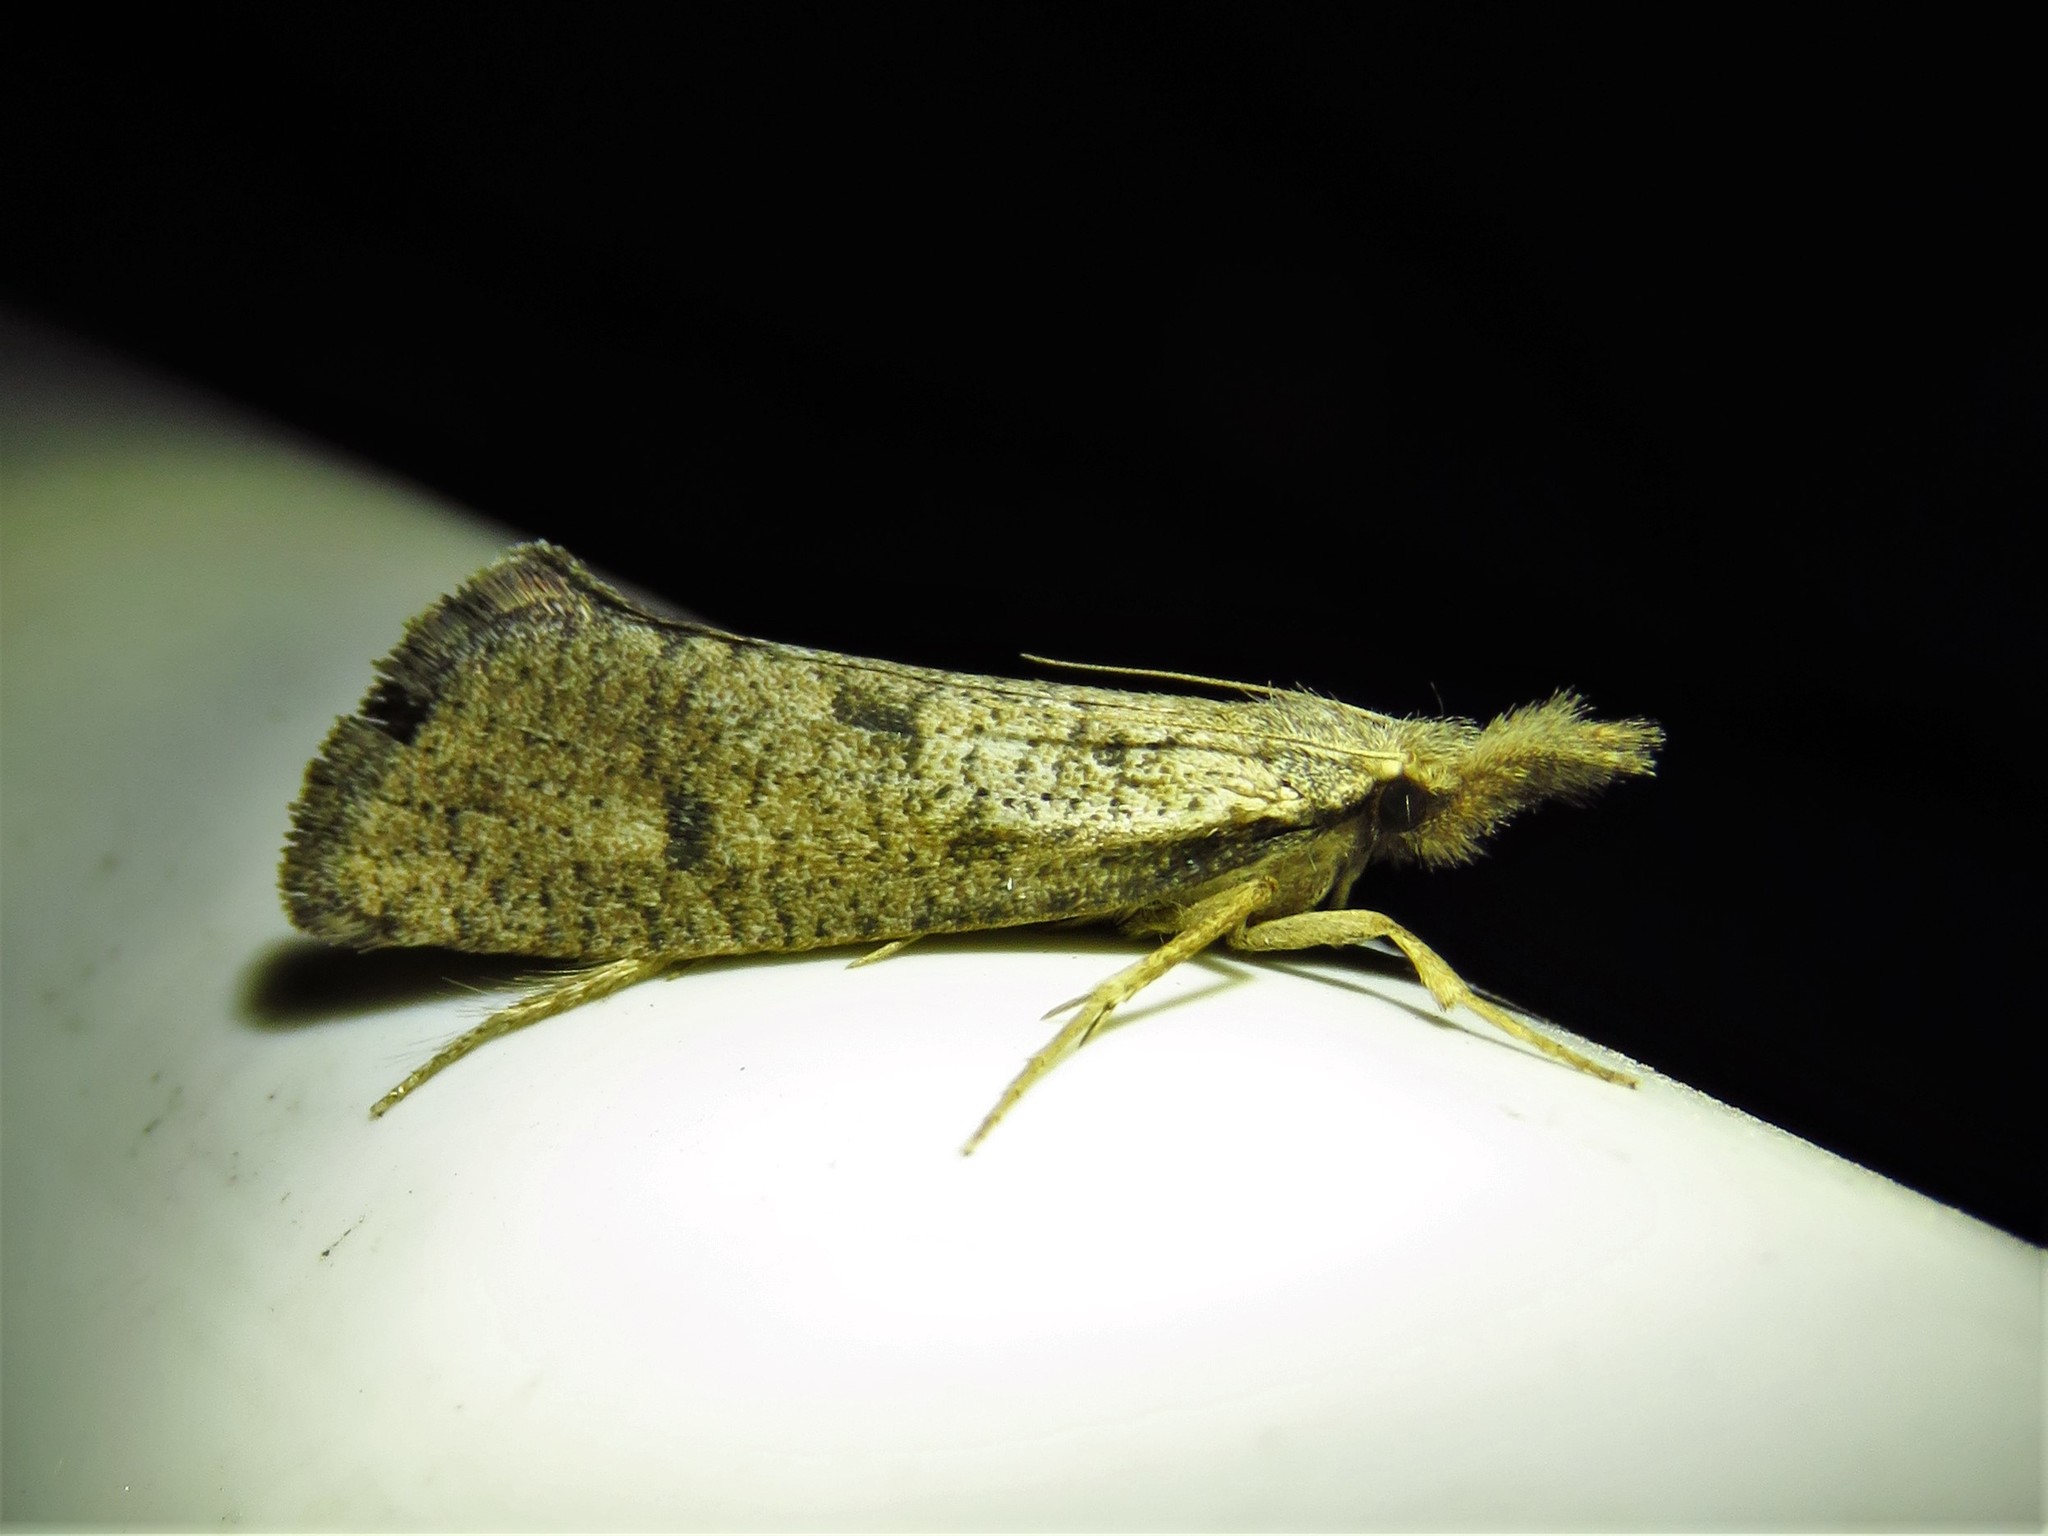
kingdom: Animalia
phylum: Arthropoda
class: Insecta
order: Lepidoptera
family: Tineidae
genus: Acrolophus
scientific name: Acrolophus mortipennella
